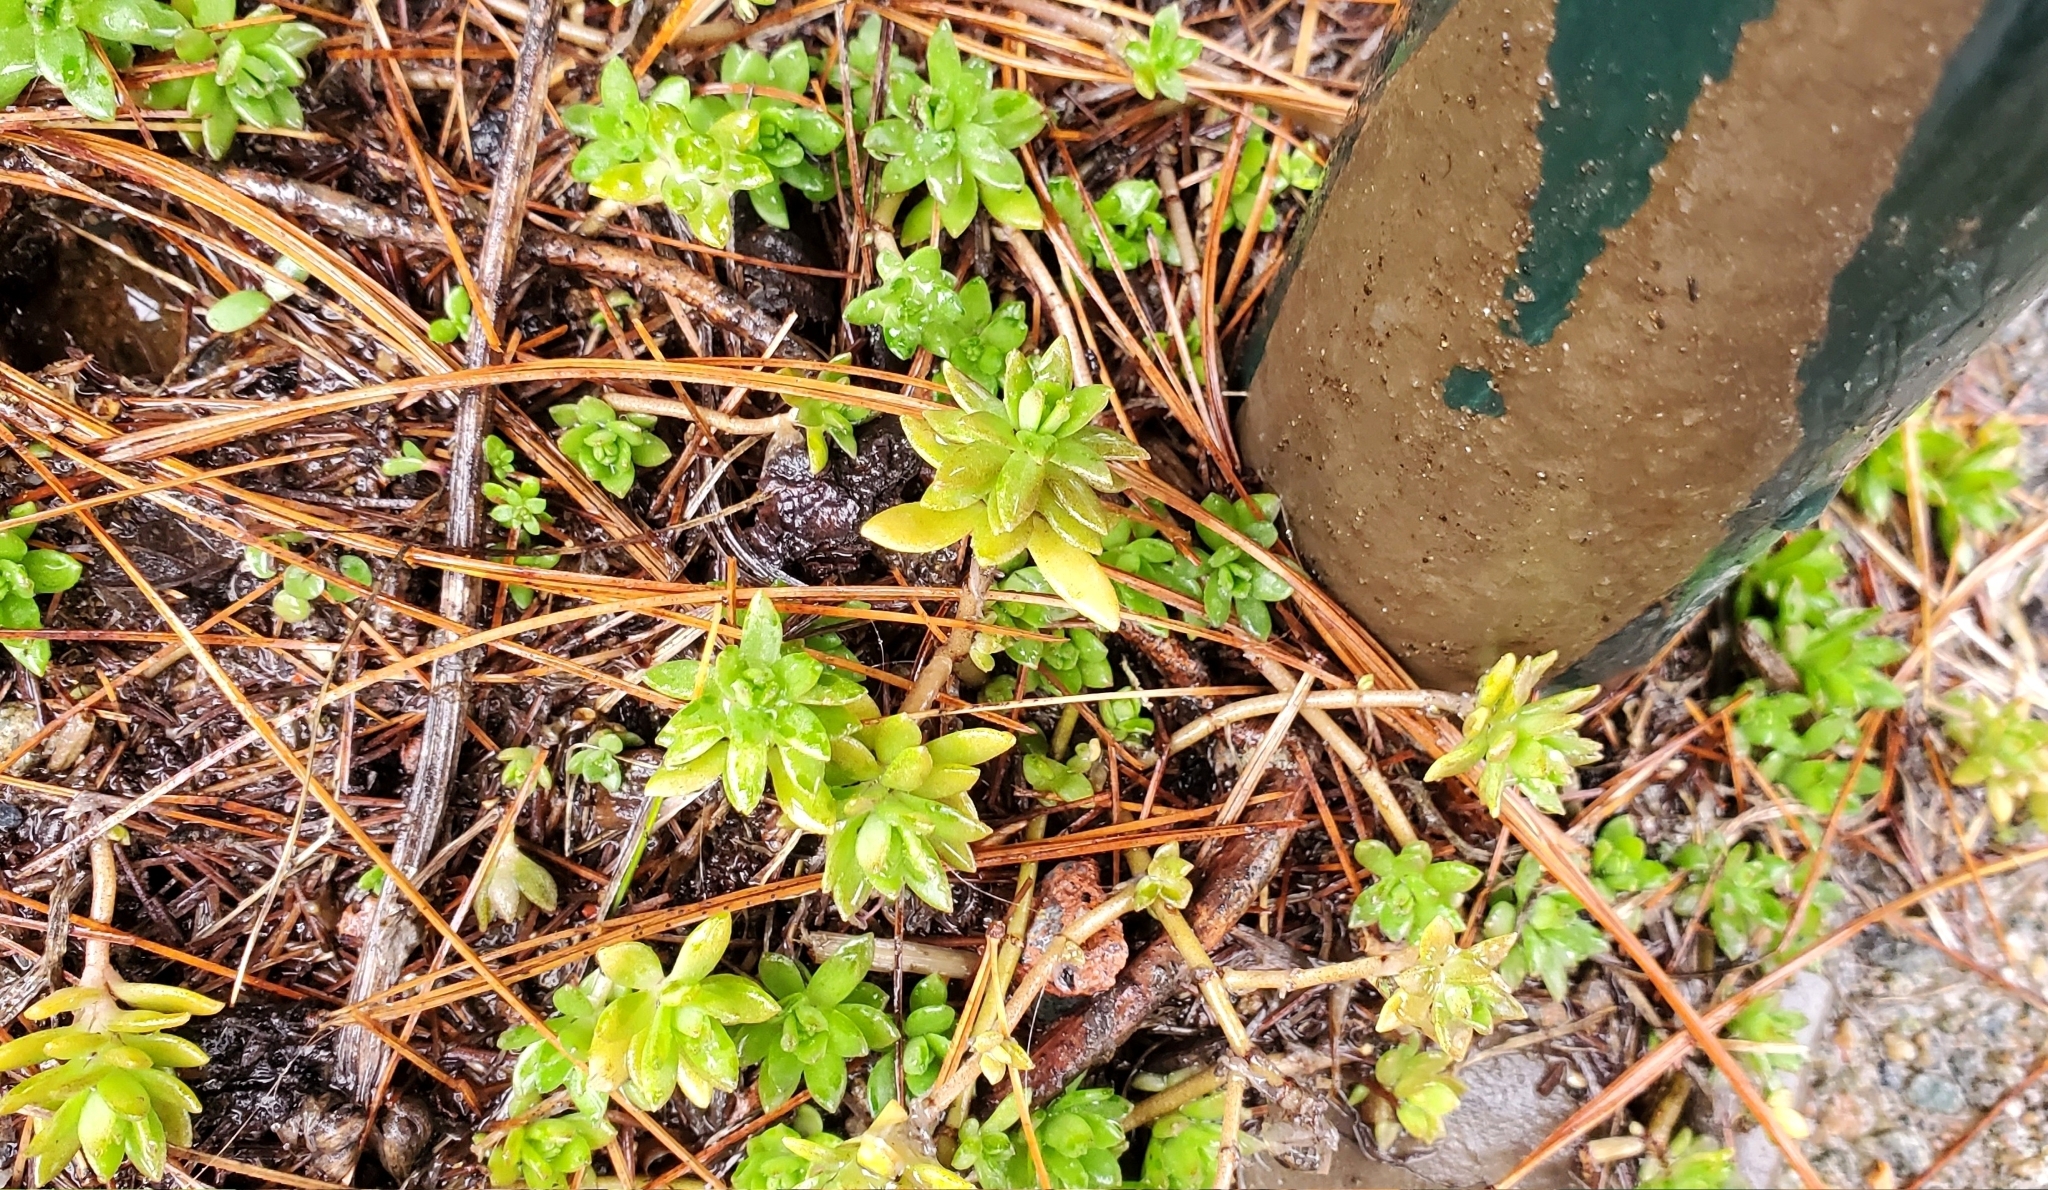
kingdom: Plantae
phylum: Tracheophyta
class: Magnoliopsida
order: Saxifragales
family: Crassulaceae
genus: Sedum
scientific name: Sedum sarmentosum
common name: Stringy stonecrop
